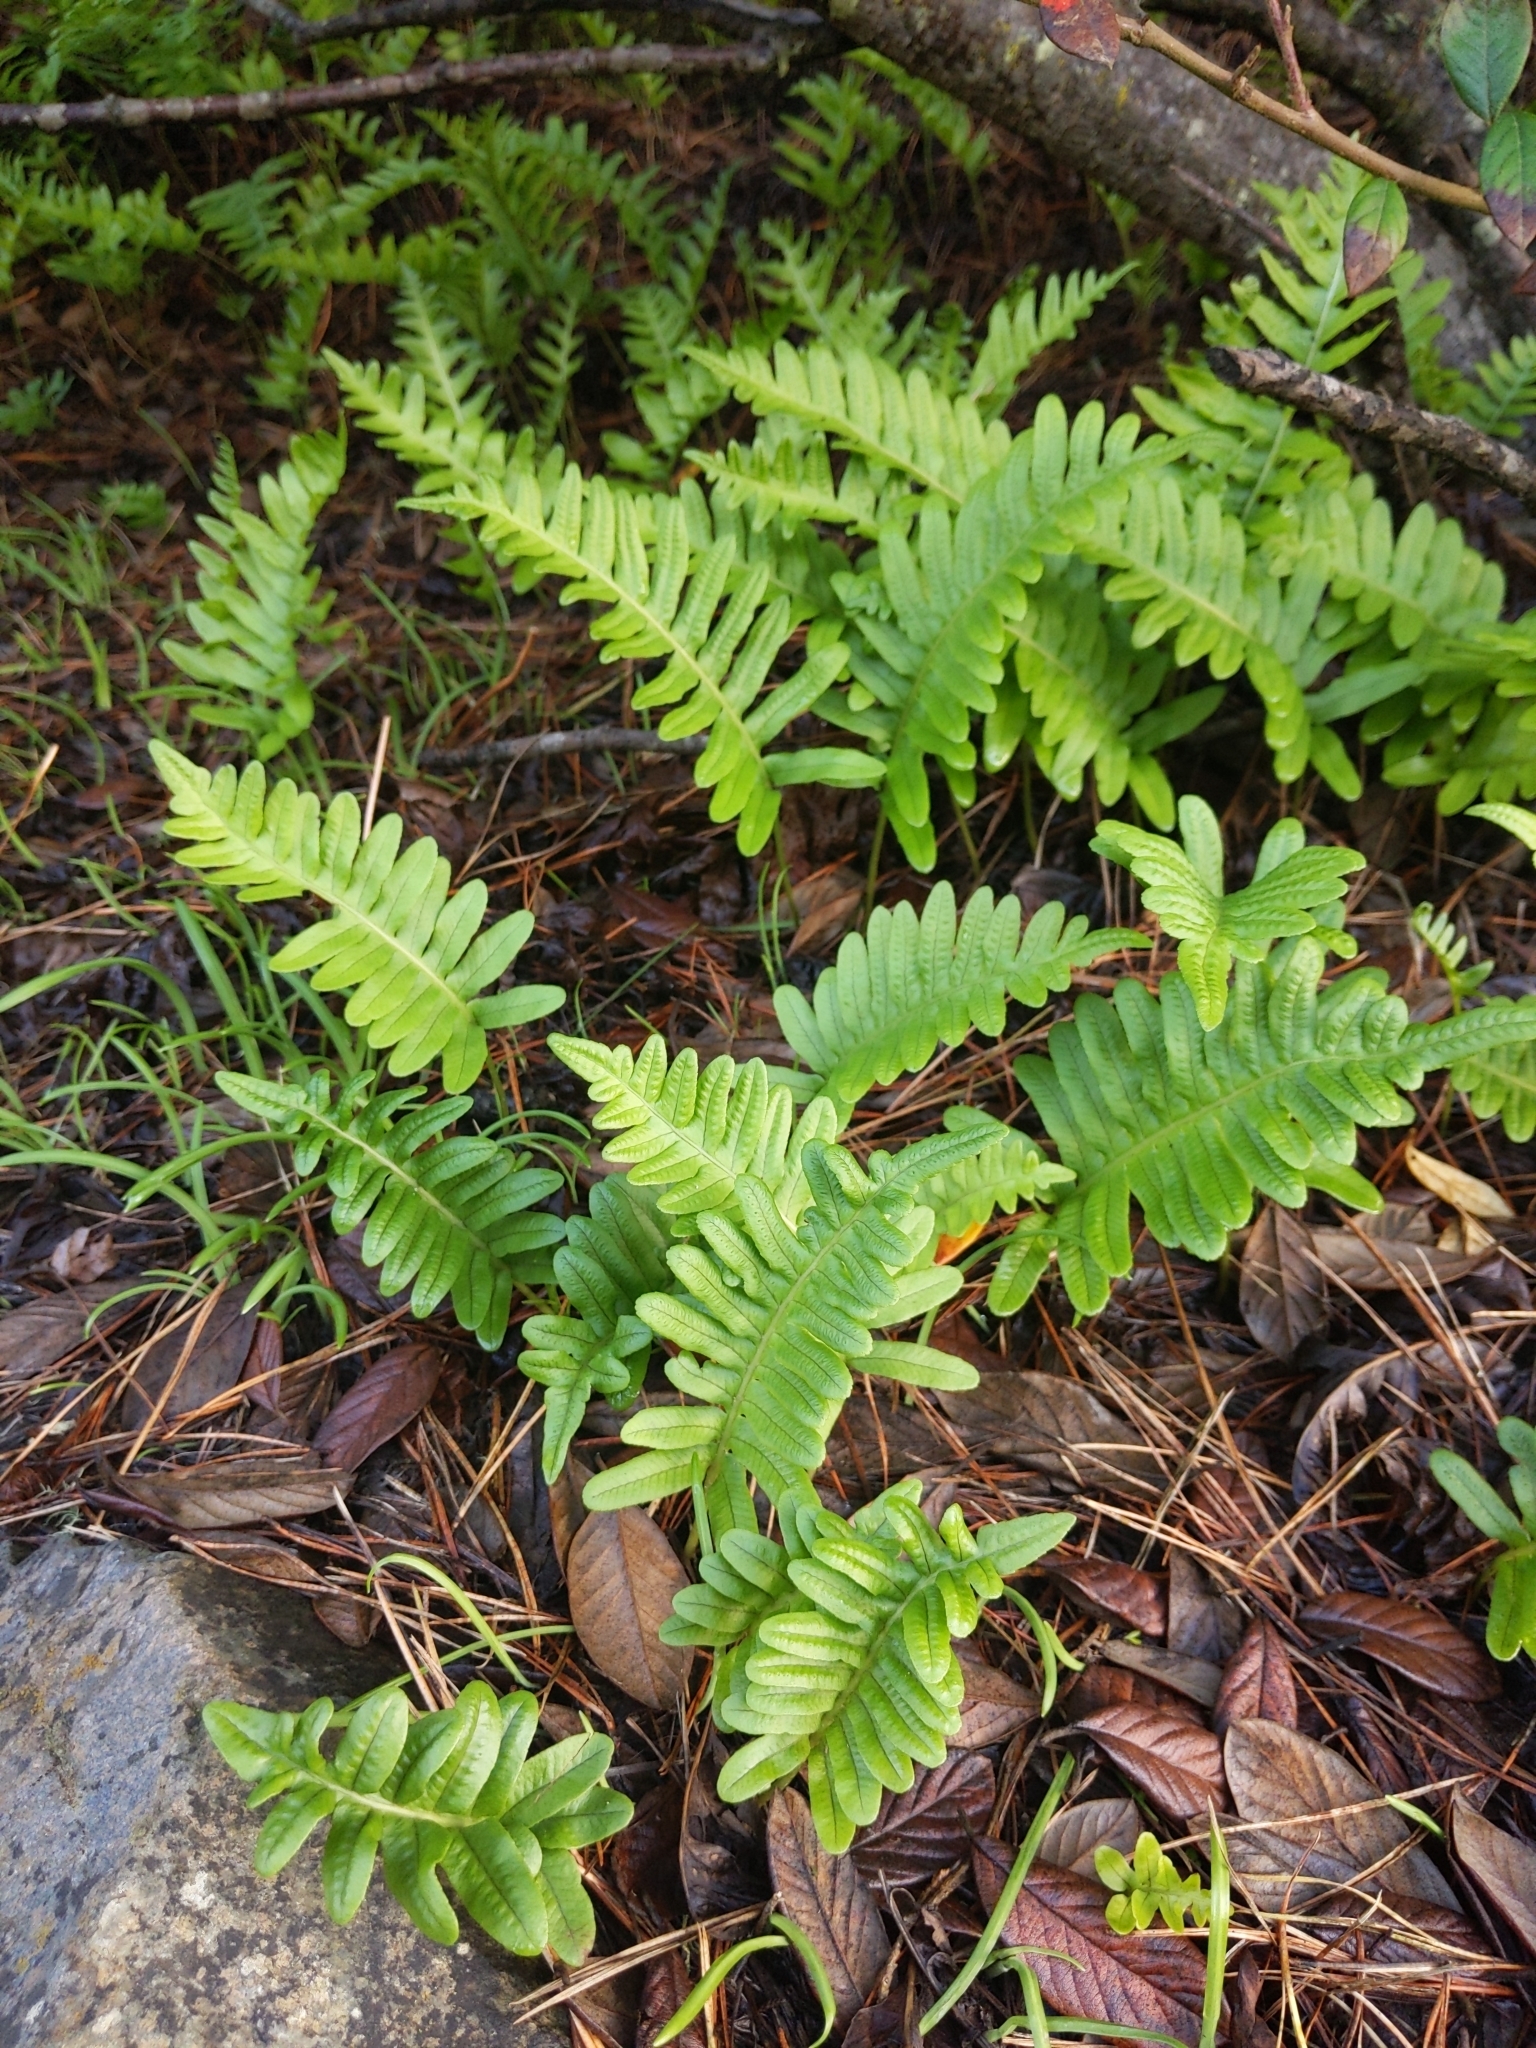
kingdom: Plantae
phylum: Tracheophyta
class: Polypodiopsida
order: Polypodiales
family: Polypodiaceae
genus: Polypodium
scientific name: Polypodium californicum
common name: California polypody
